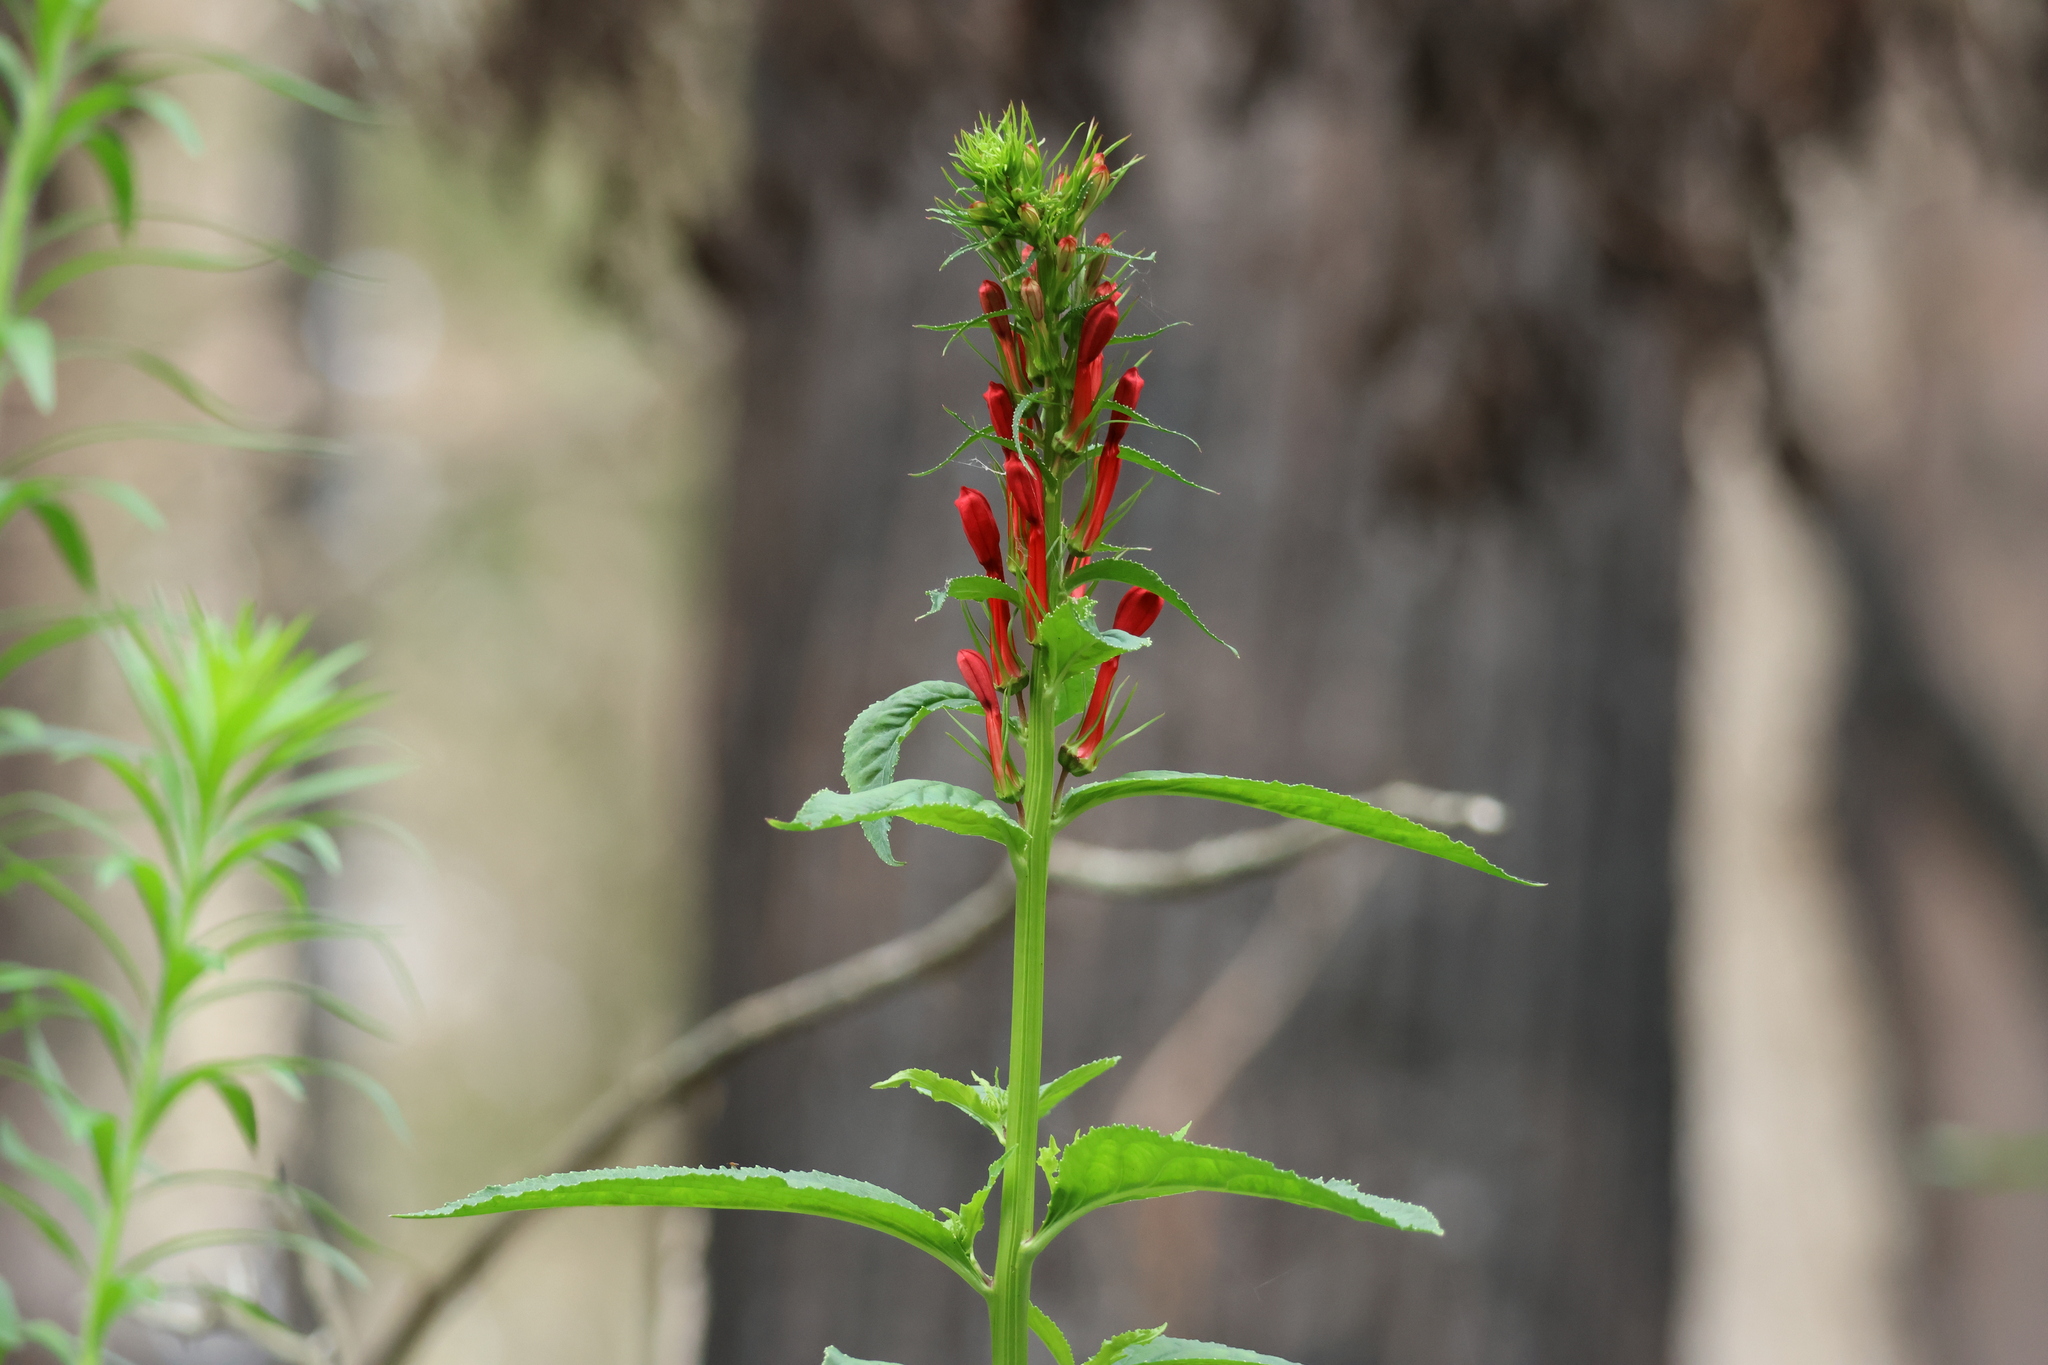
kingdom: Plantae
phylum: Tracheophyta
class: Magnoliopsida
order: Asterales
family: Campanulaceae
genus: Lobelia
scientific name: Lobelia cardinalis
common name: Cardinal flower
